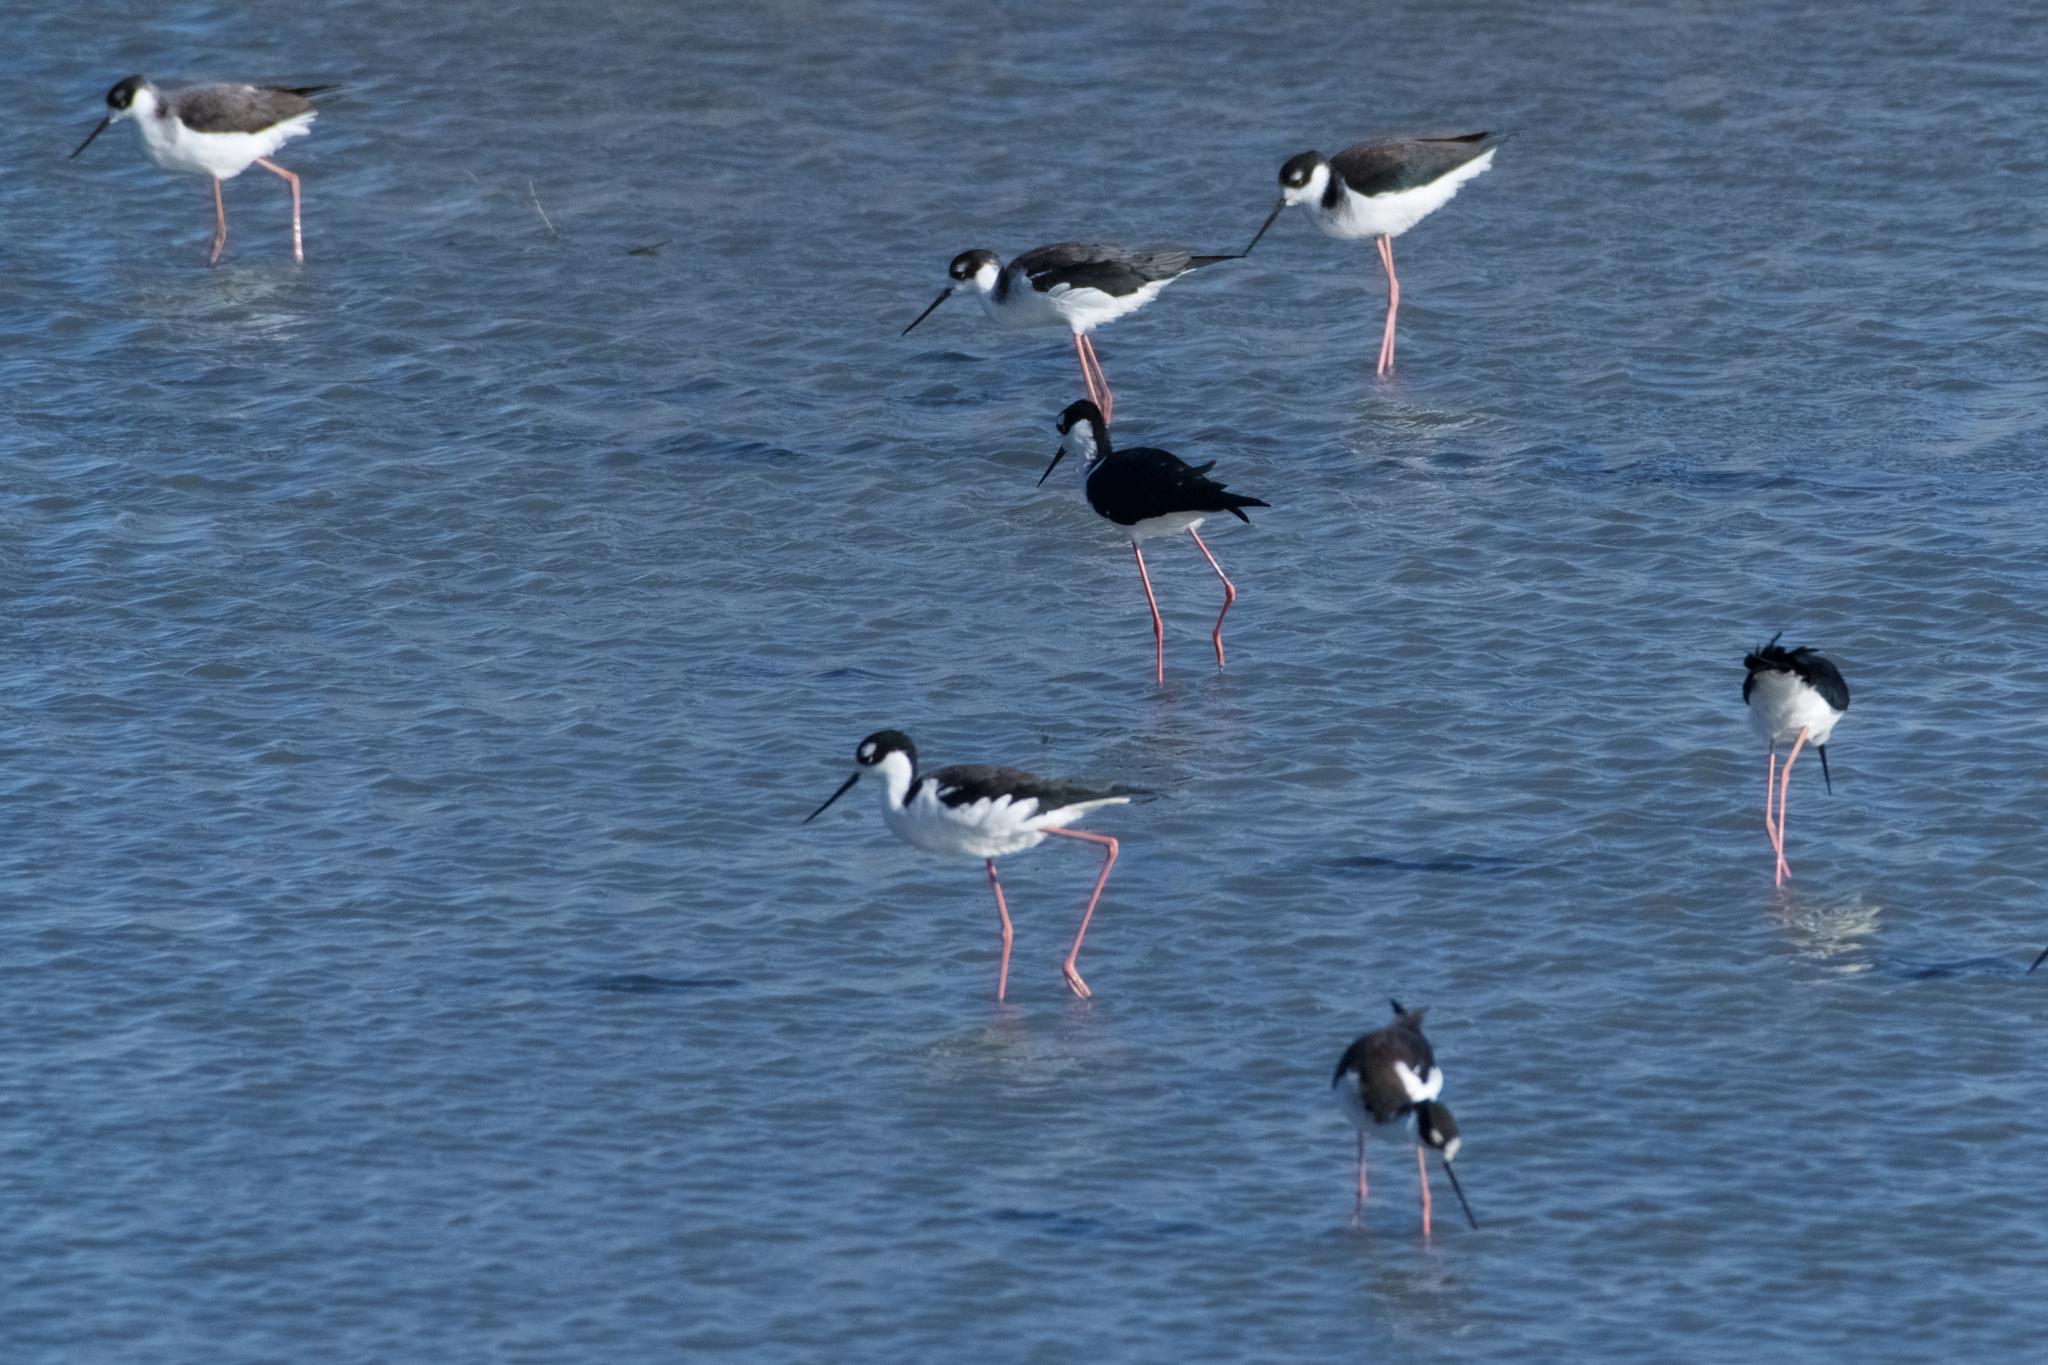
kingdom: Animalia
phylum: Chordata
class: Aves
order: Charadriiformes
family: Recurvirostridae
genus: Himantopus
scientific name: Himantopus mexicanus
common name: Black-necked stilt
